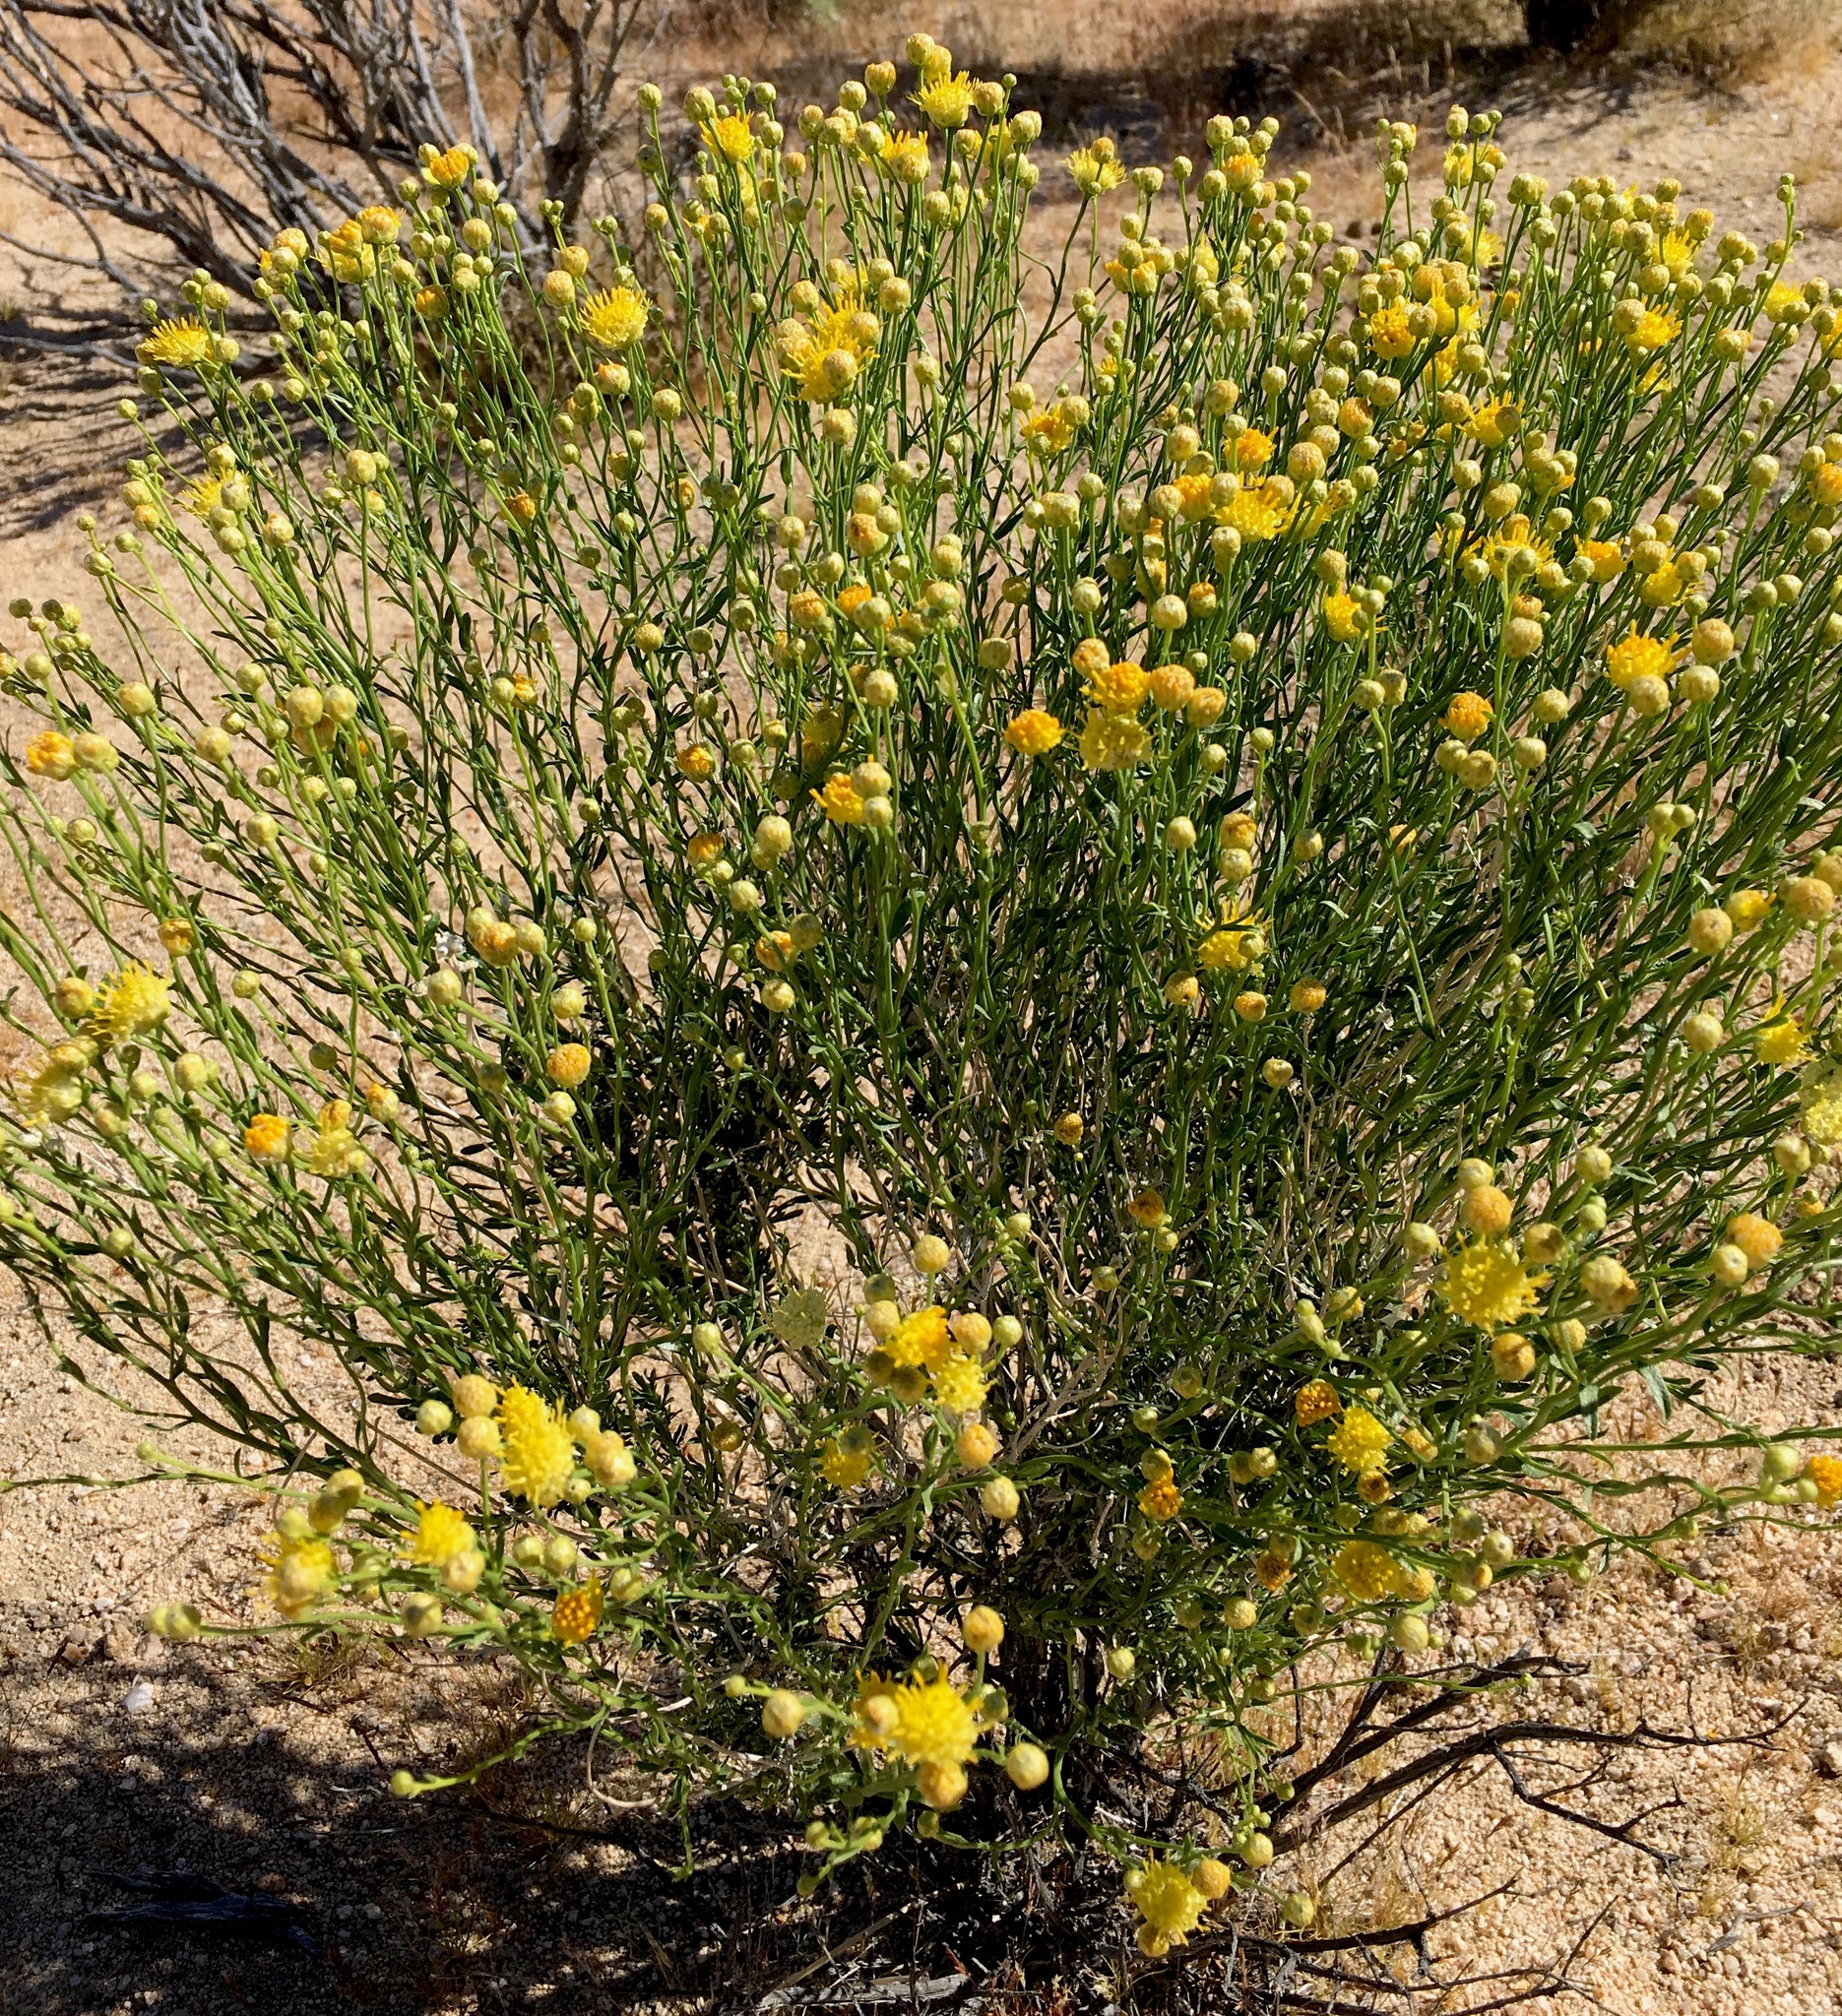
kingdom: Plantae
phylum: Tracheophyta
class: Magnoliopsida
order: Asterales
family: Asteraceae
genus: Acamptopappus
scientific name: Acamptopappus sphaerocephalus
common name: Goldenhead
